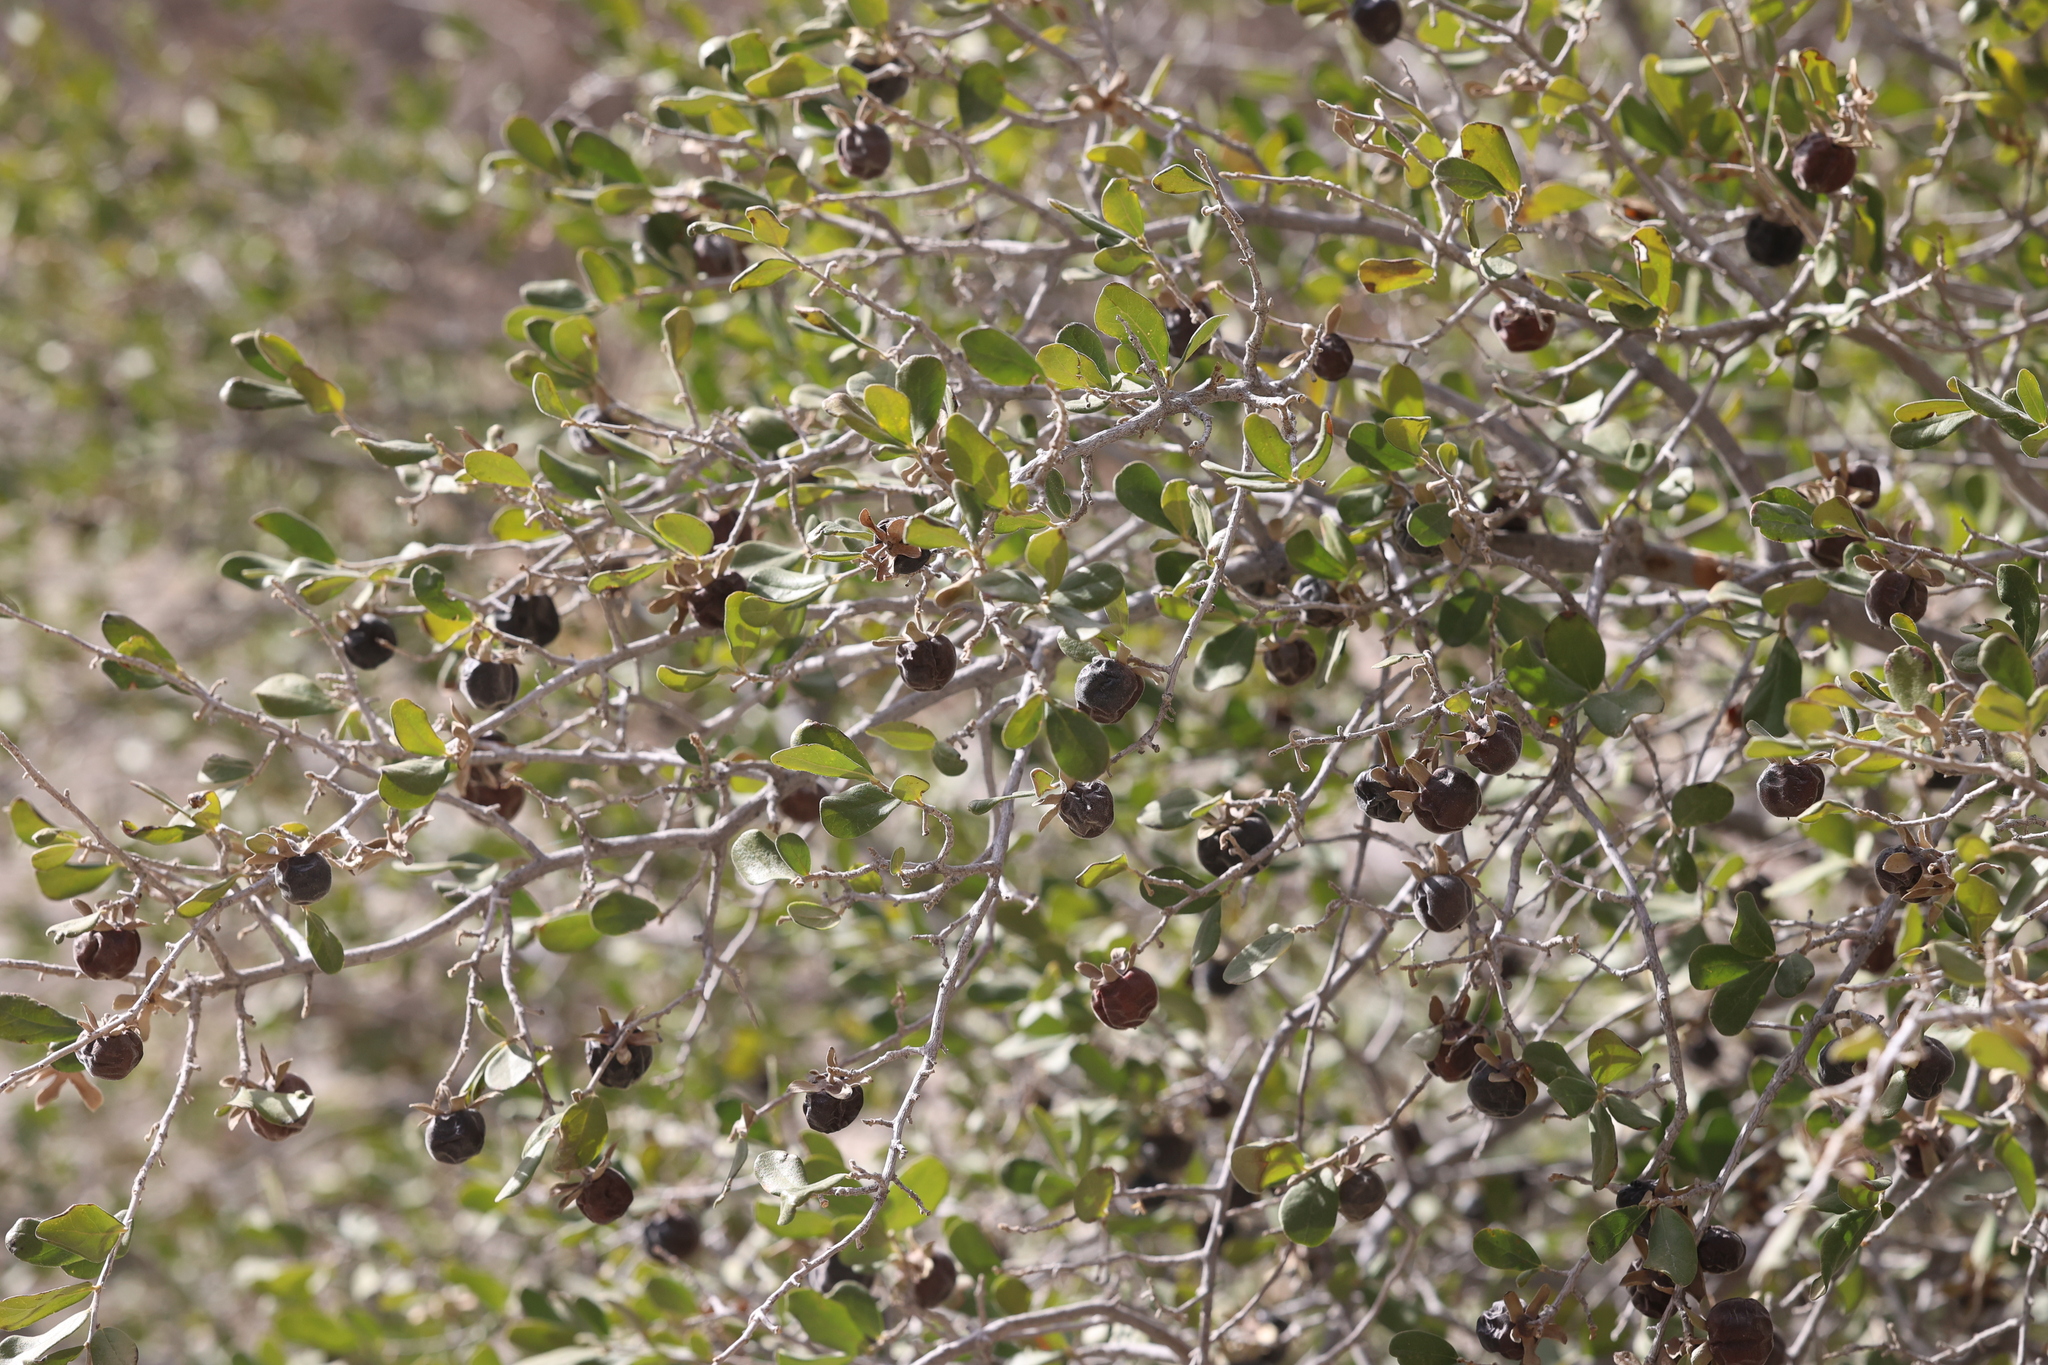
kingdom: Plantae
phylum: Tracheophyta
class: Magnoliopsida
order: Ericales
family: Ebenaceae
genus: Diospyros
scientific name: Diospyros texana
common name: Texas persimmon
